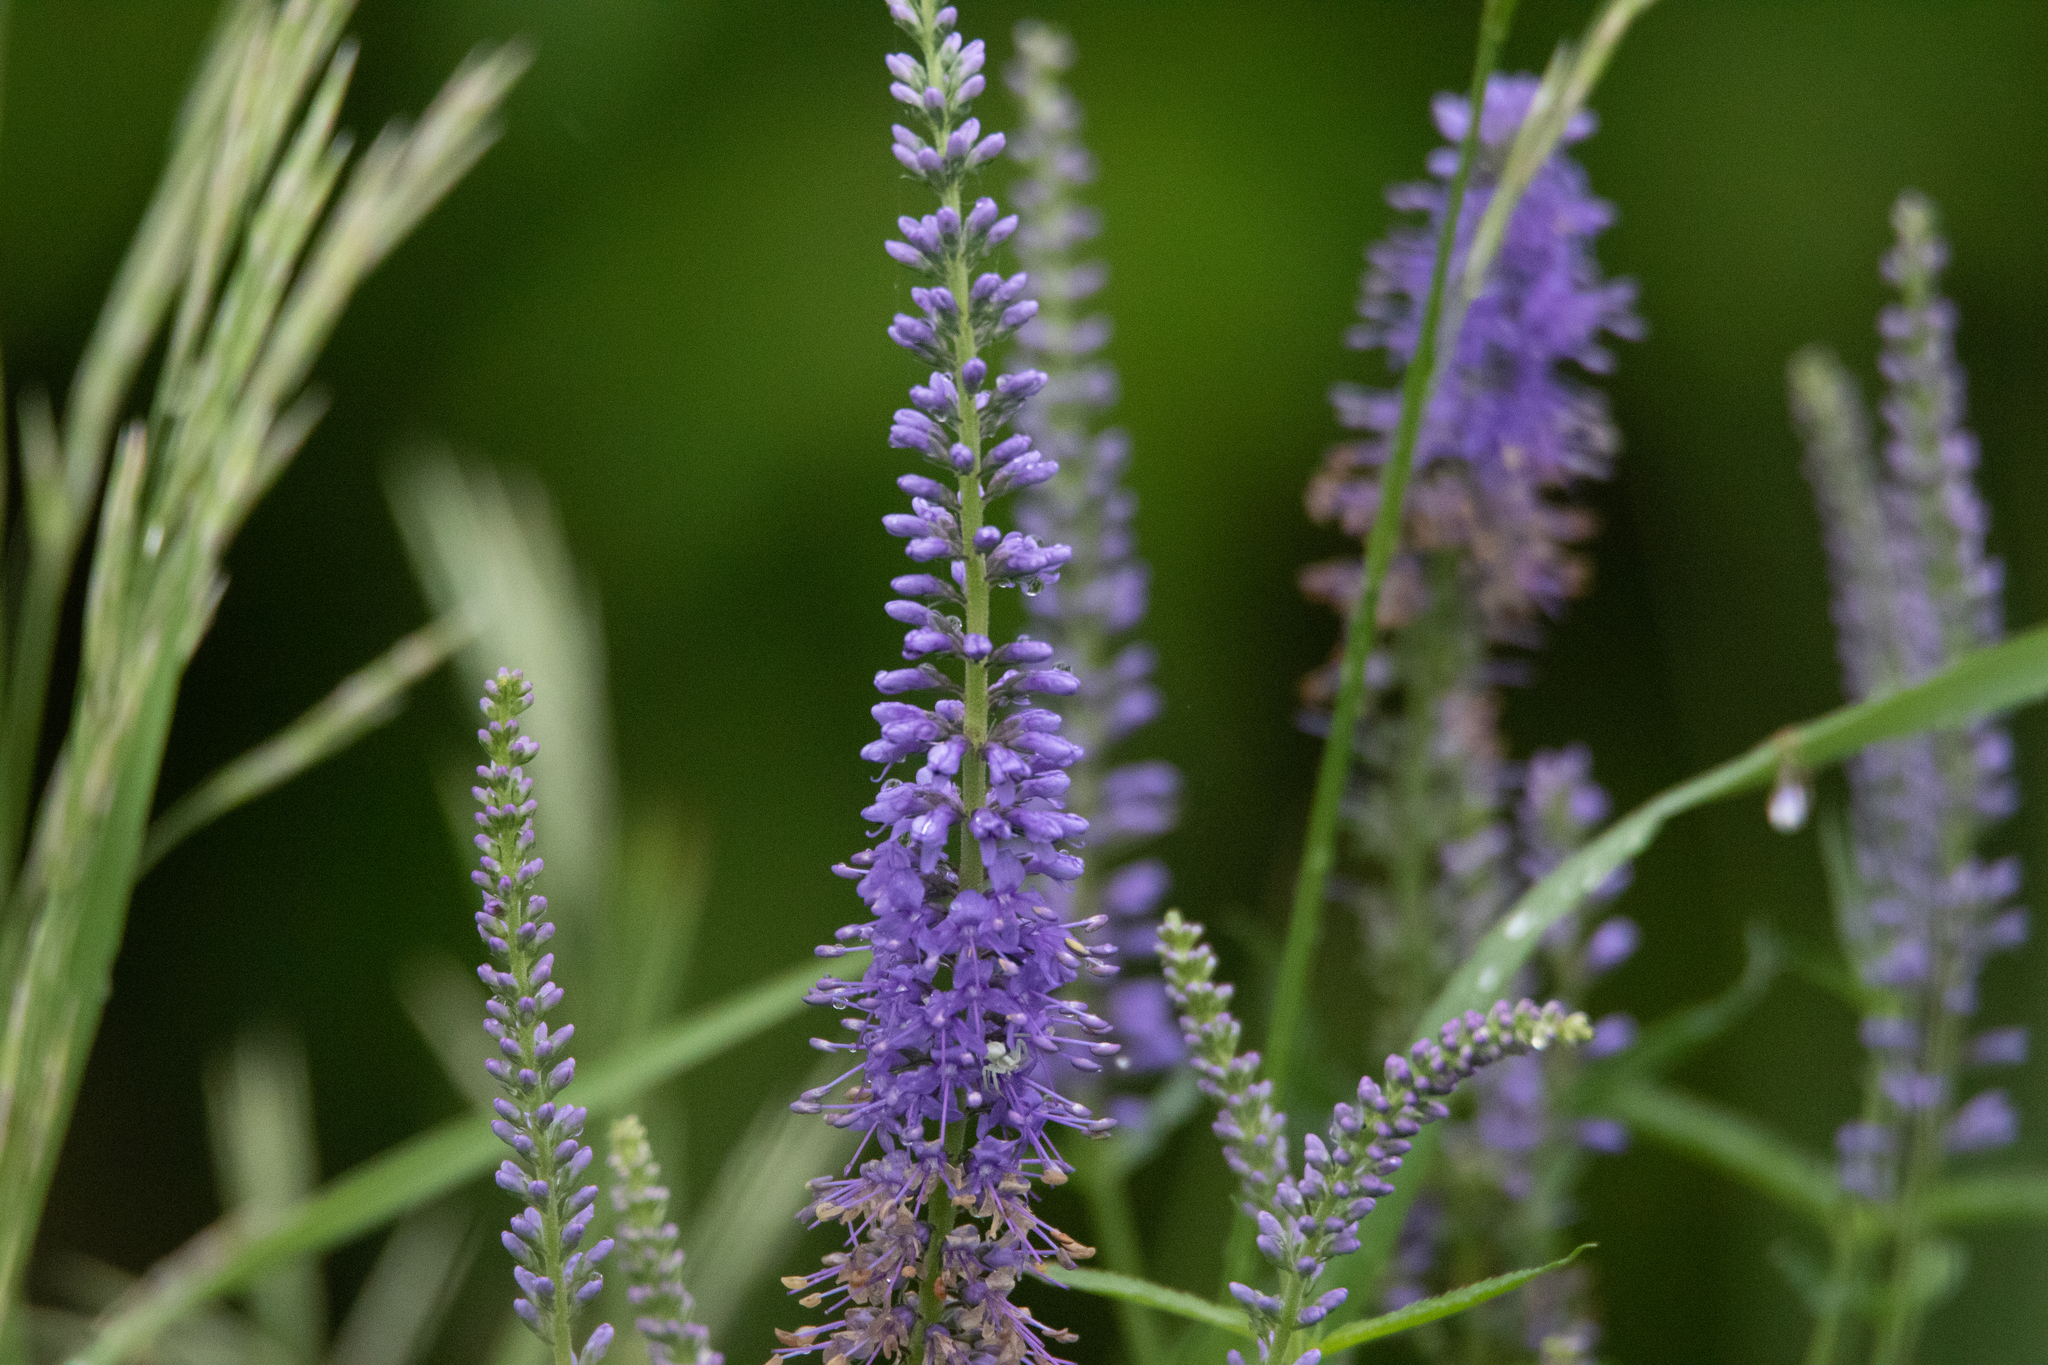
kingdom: Plantae
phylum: Tracheophyta
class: Magnoliopsida
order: Lamiales
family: Plantaginaceae
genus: Veronica
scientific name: Veronica longifolia
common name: Garden speedwell
